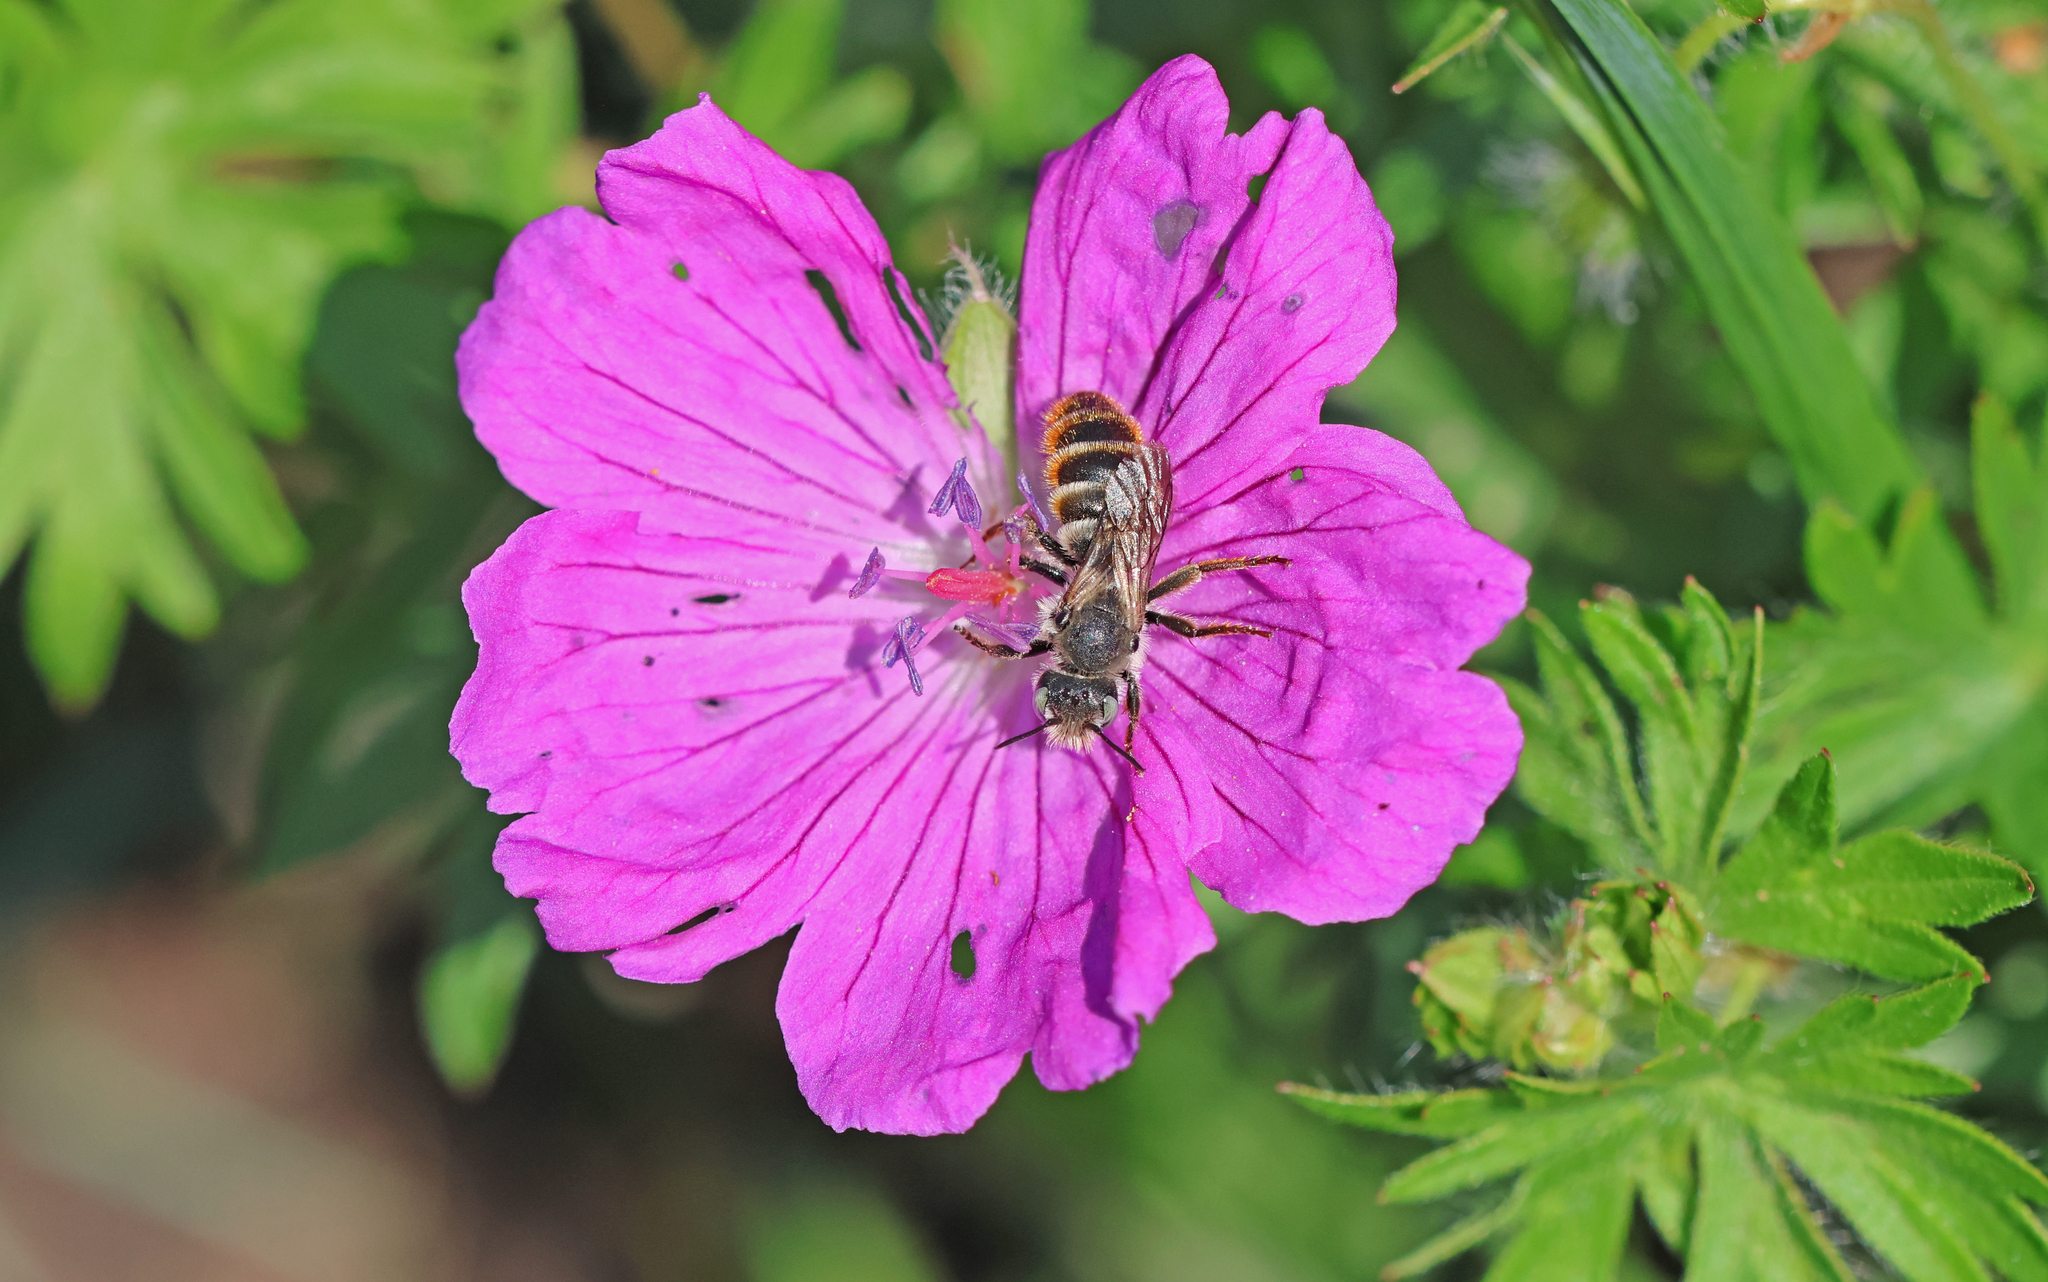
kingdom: Animalia
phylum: Arthropoda
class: Insecta
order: Hymenoptera
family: Megachilidae
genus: Osmia
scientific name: Osmia rufohirta
